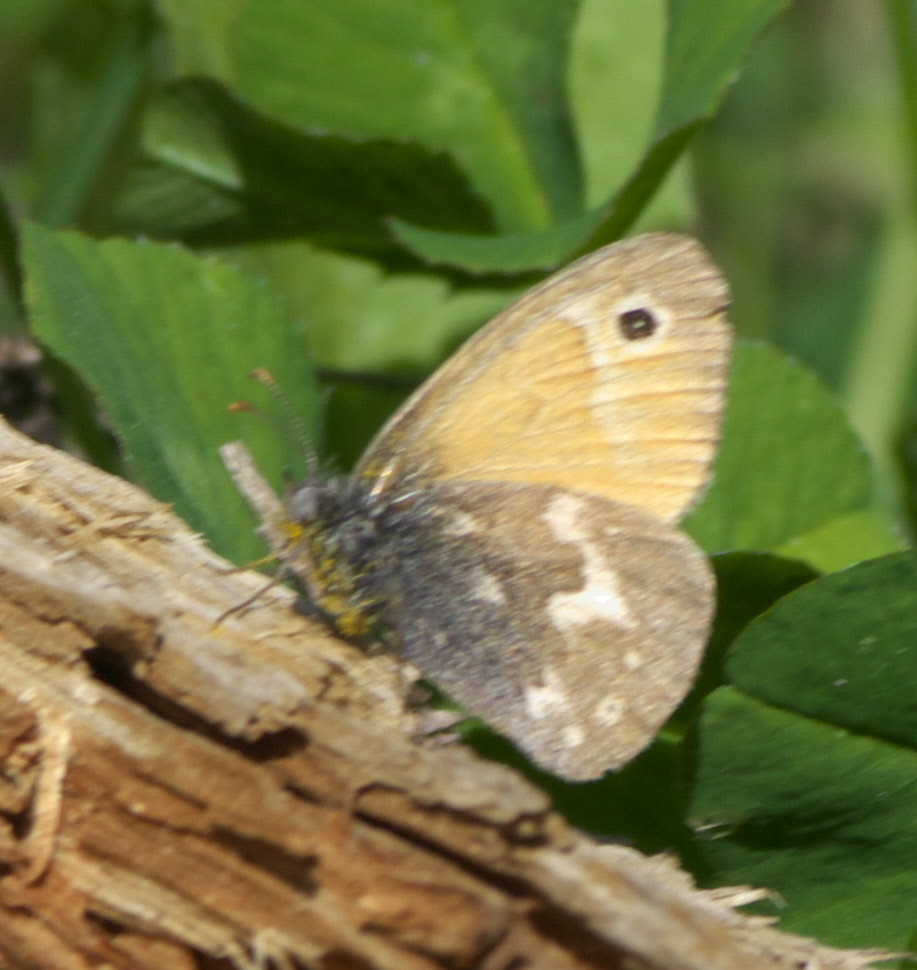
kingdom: Animalia
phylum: Arthropoda
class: Insecta
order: Lepidoptera
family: Nymphalidae
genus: Coenonympha
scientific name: Coenonympha california
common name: Common ringlet
